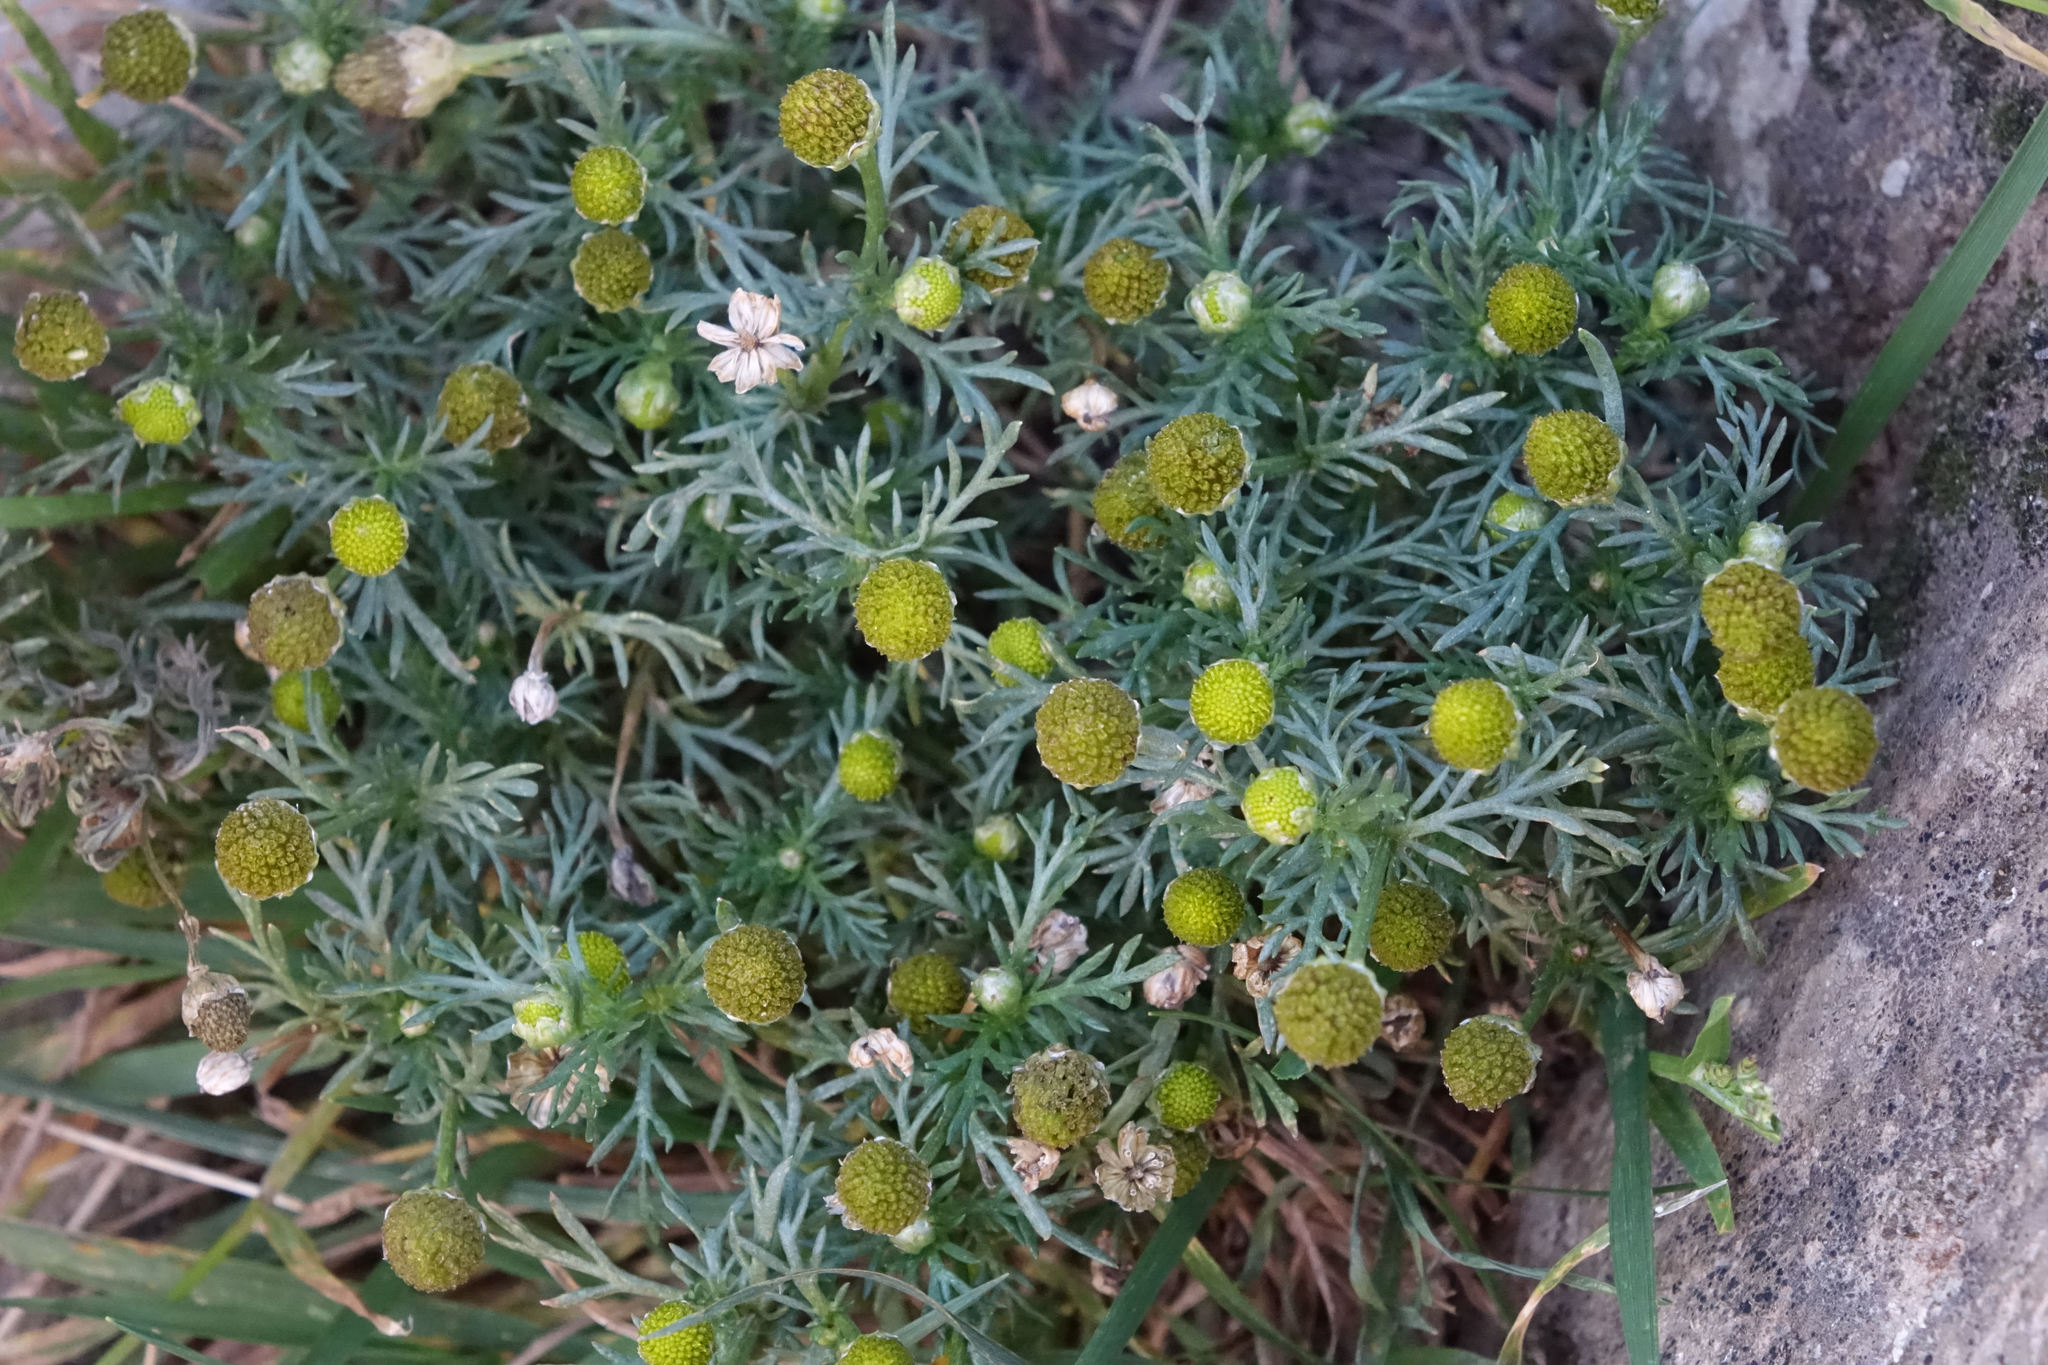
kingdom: Plantae
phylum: Tracheophyta
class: Magnoliopsida
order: Asterales
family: Asteraceae
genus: Matricaria
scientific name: Matricaria discoidea
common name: Disc mayweed
